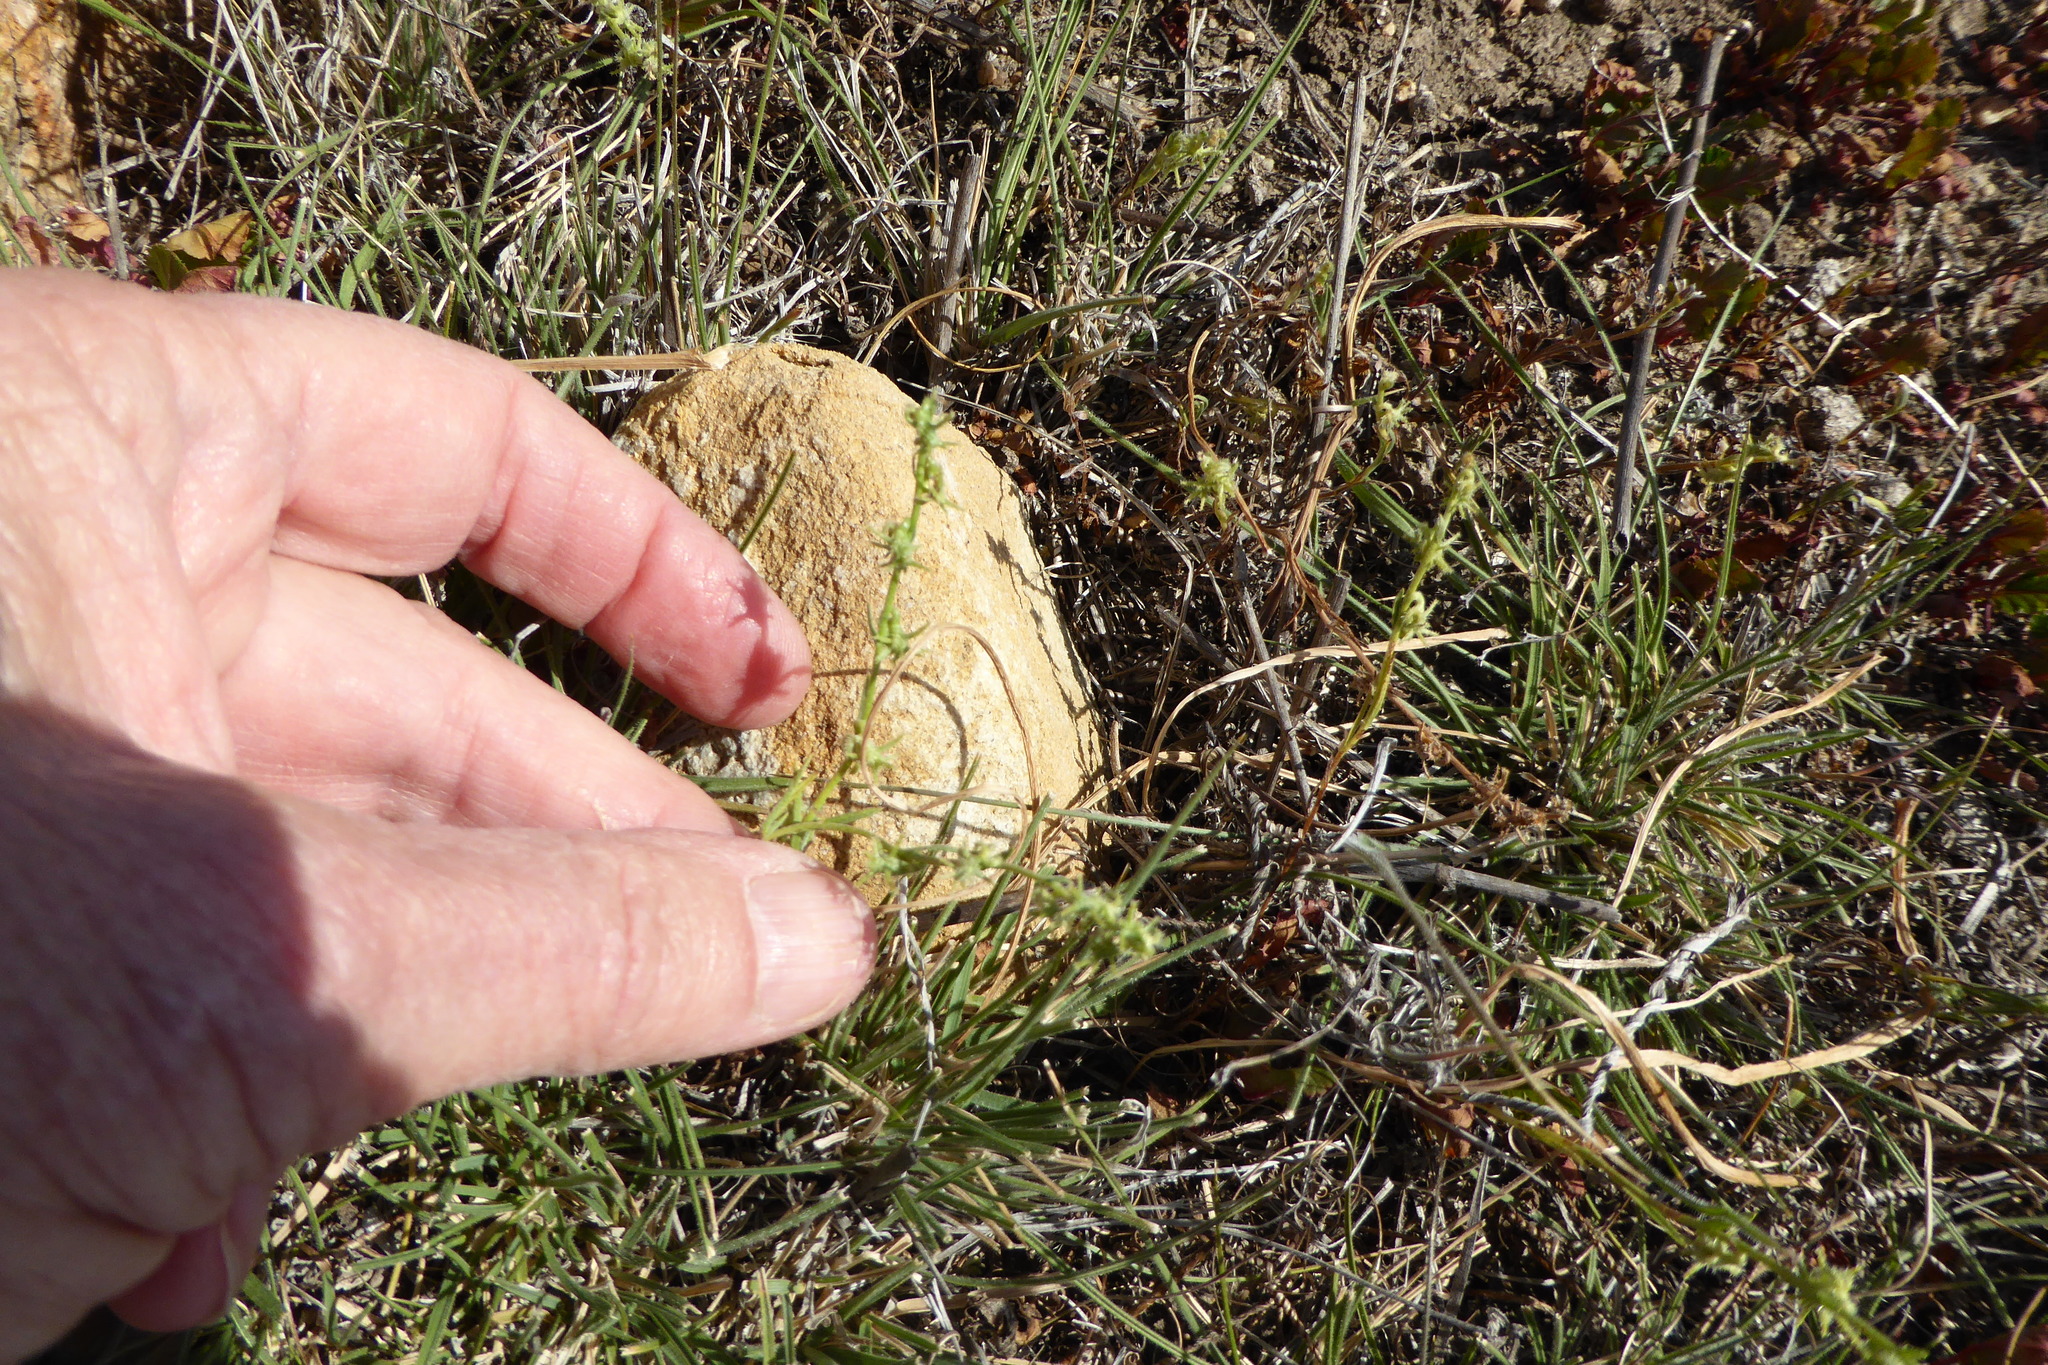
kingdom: Plantae
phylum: Tracheophyta
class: Magnoliopsida
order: Boraginales
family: Boraginaceae
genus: Harpagonella
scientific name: Harpagonella palmeri
